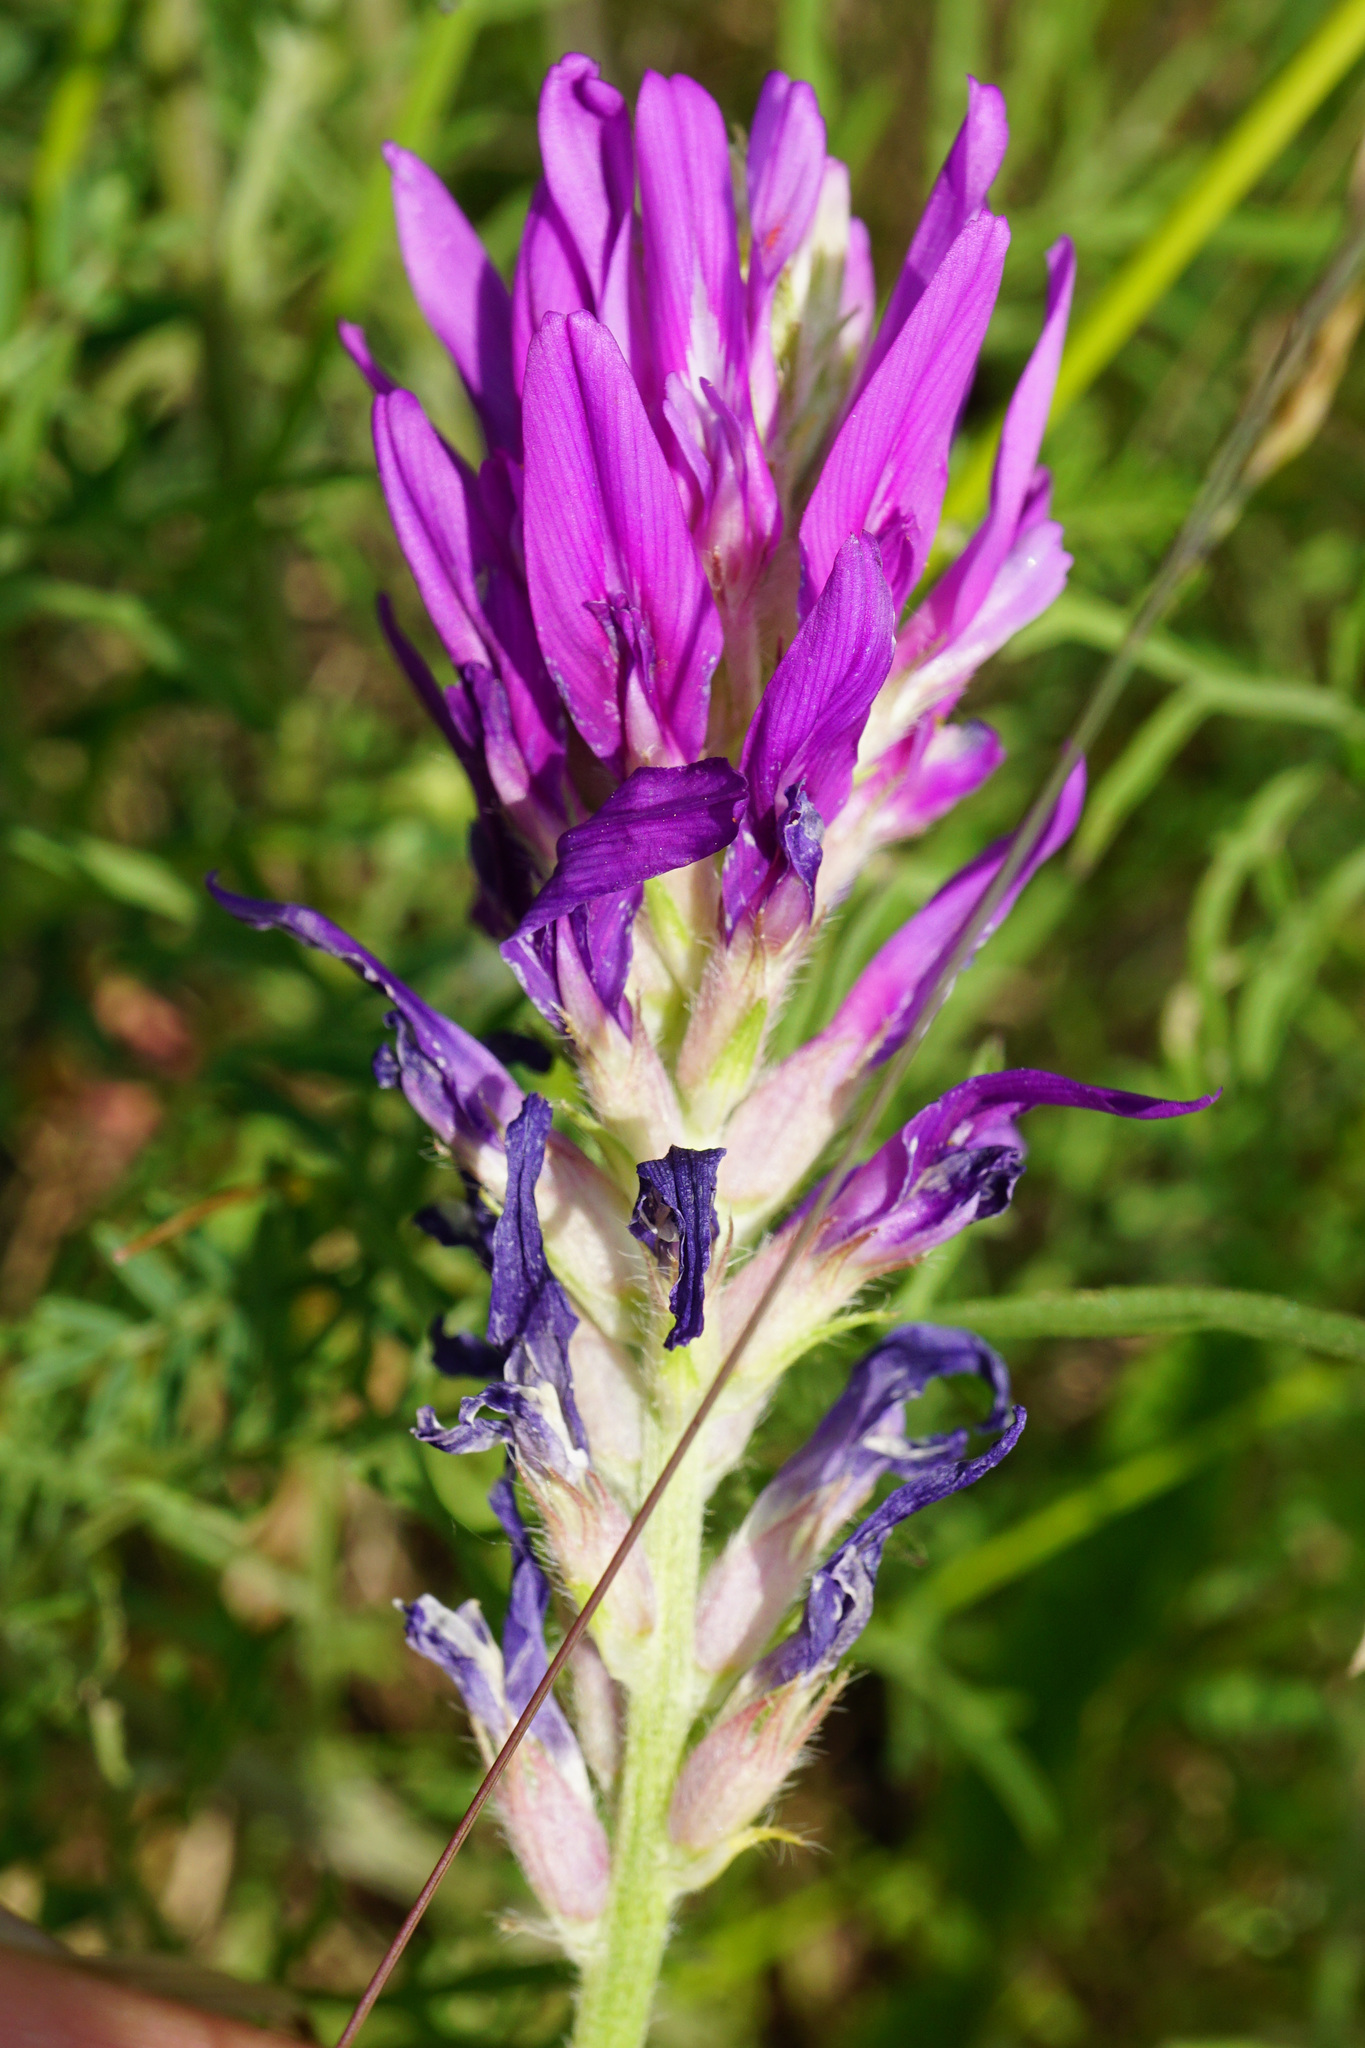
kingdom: Plantae
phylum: Tracheophyta
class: Magnoliopsida
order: Fabales
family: Fabaceae
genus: Astragalus
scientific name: Astragalus onobrychis
